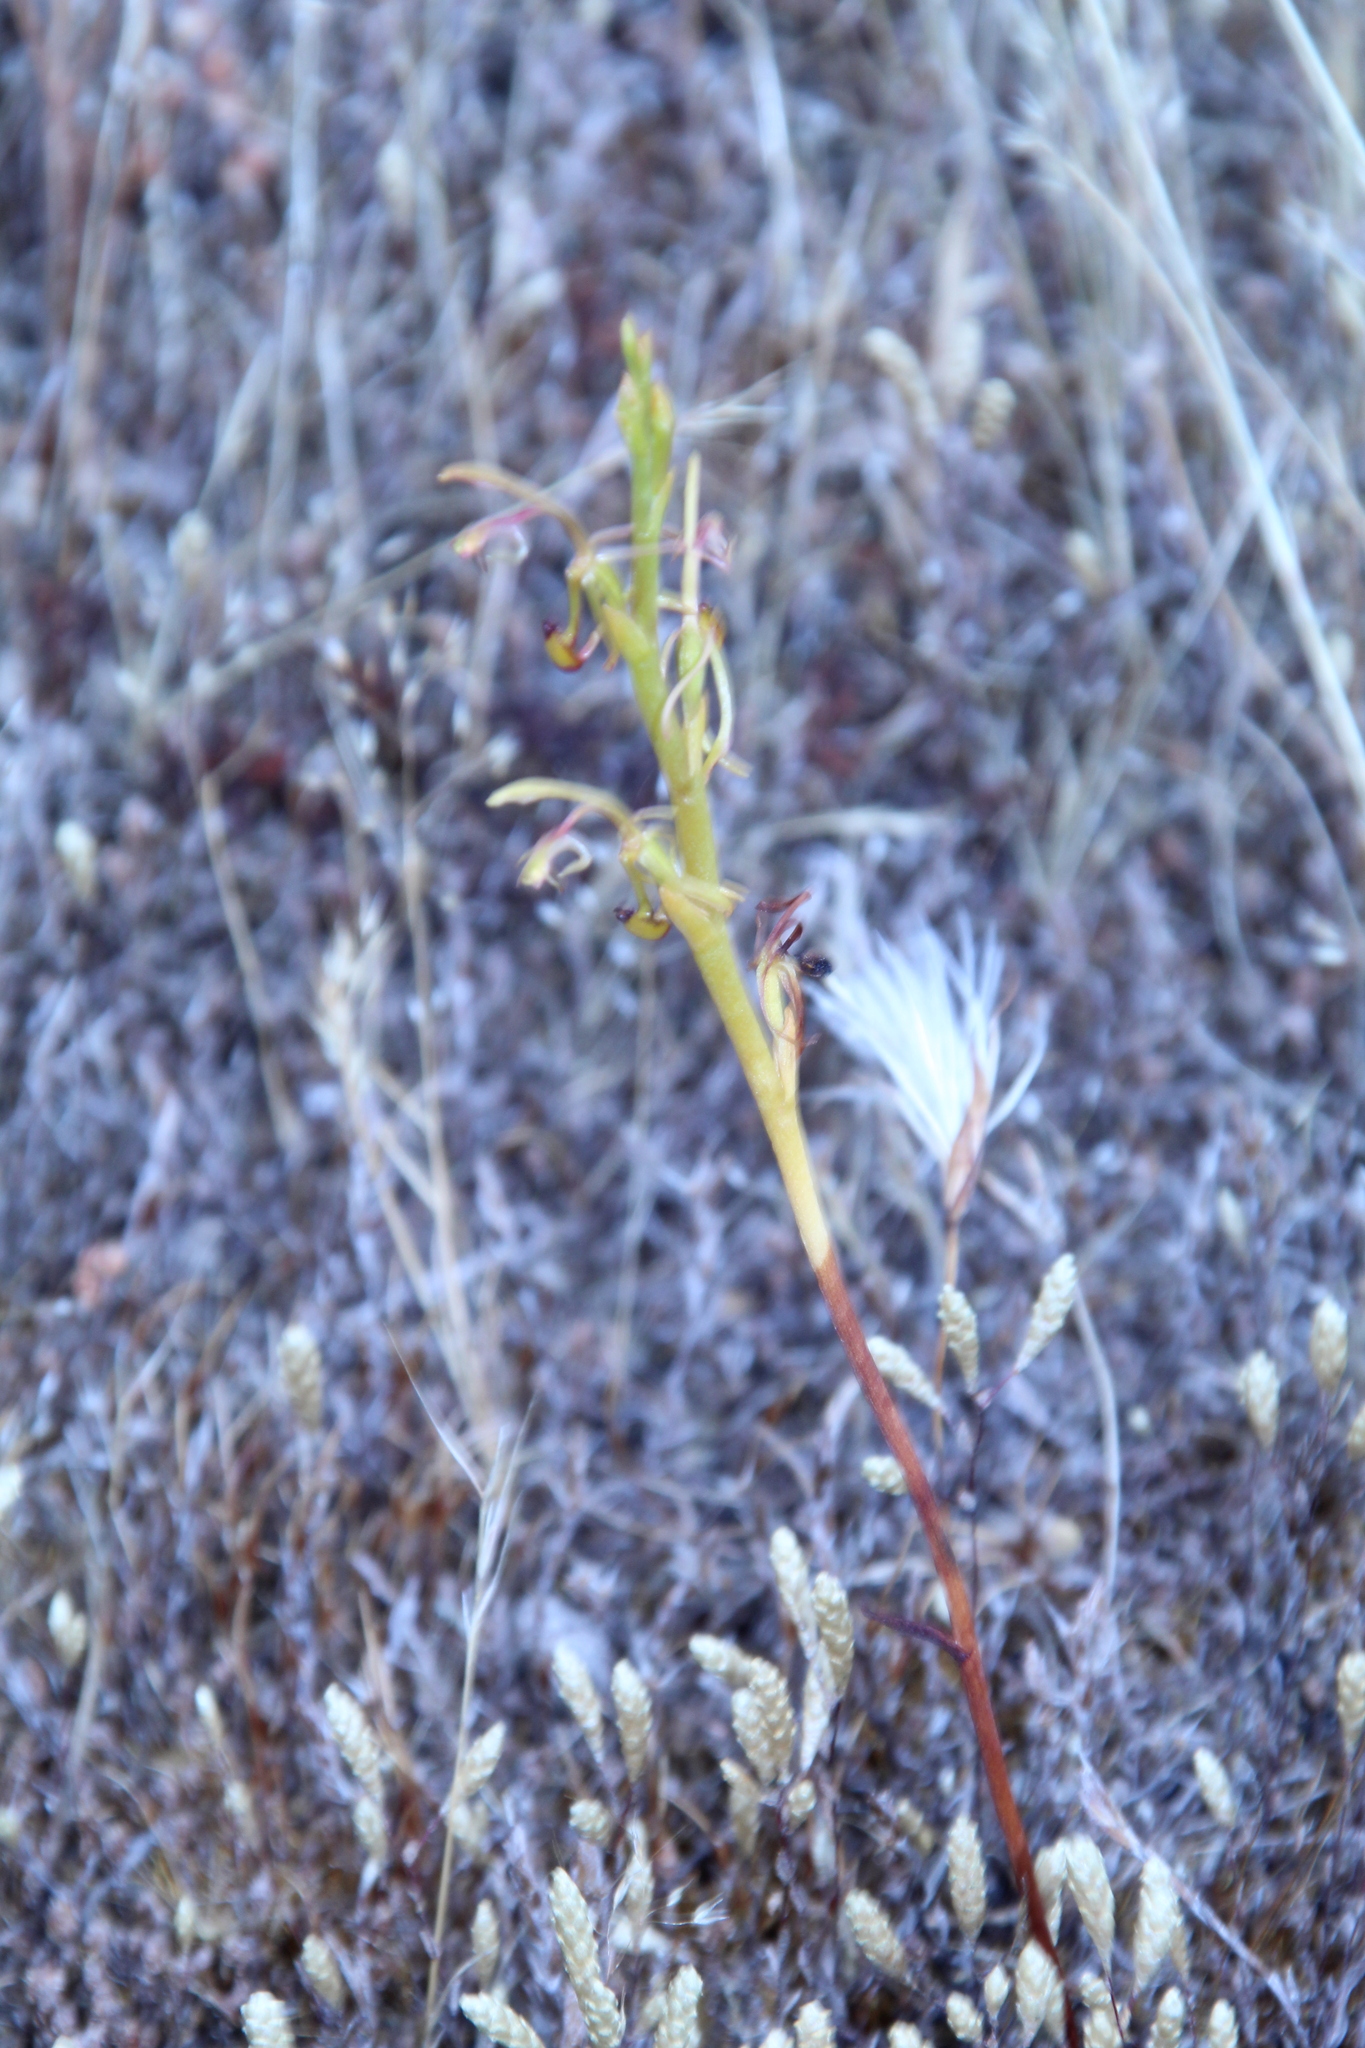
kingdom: Plantae
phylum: Tracheophyta
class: Liliopsida
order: Asparagales
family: Orchidaceae
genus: Spiculaea
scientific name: Spiculaea ciliata
